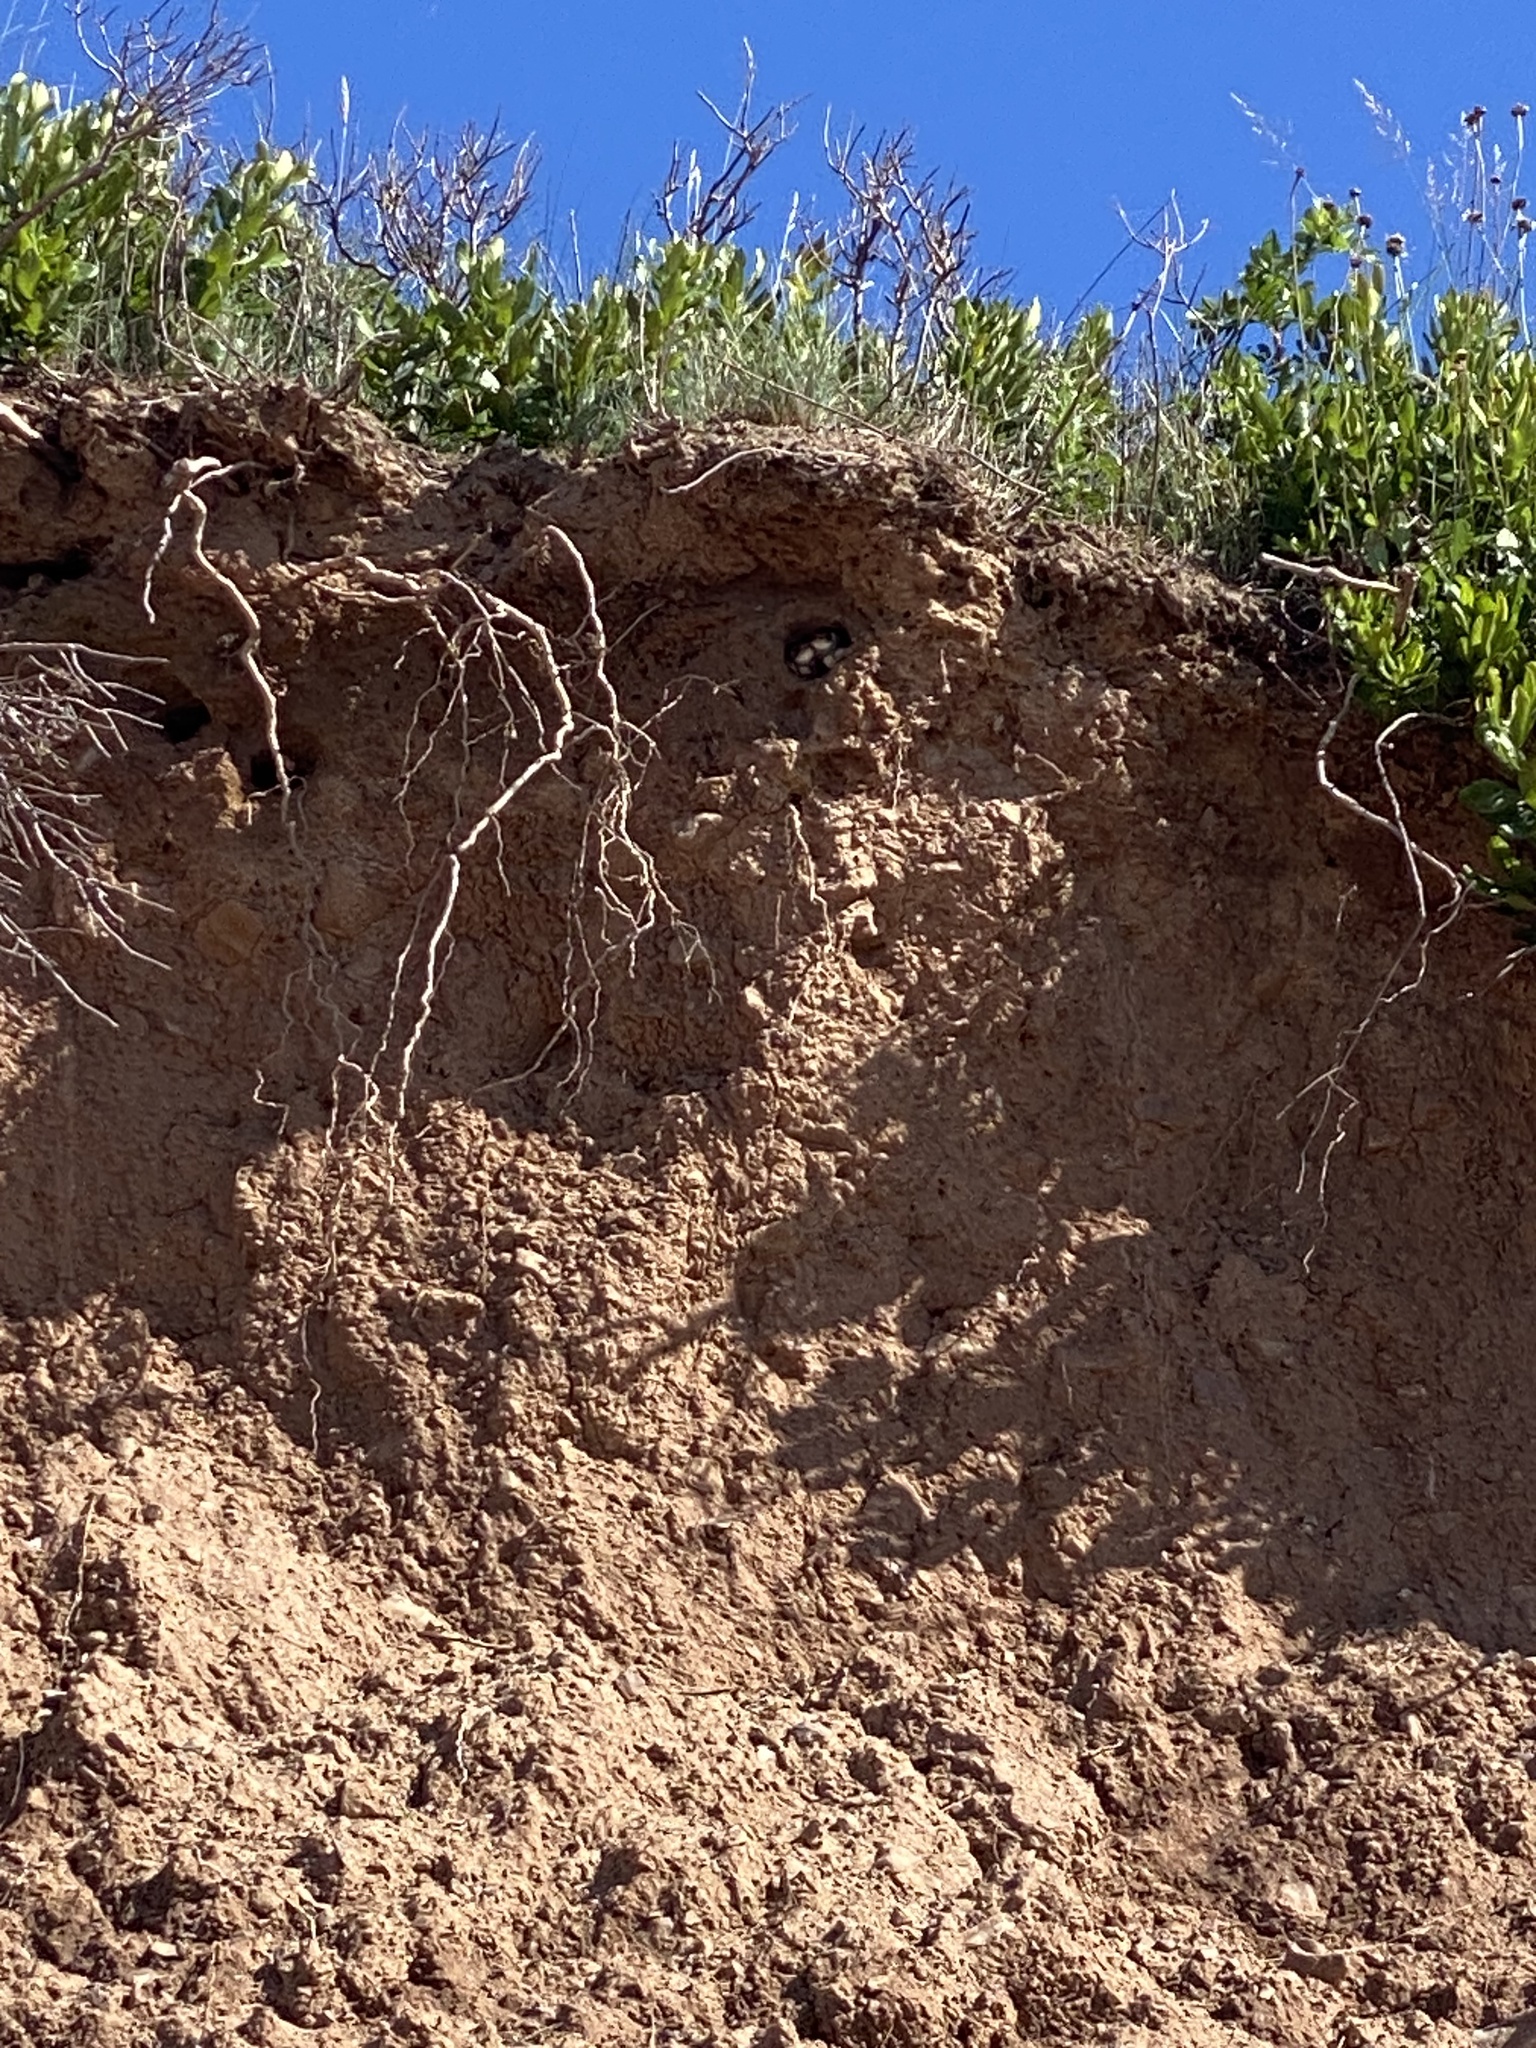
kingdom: Animalia
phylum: Chordata
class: Aves
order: Passeriformes
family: Hirundinidae
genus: Riparia
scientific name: Riparia riparia
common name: Sand martin
